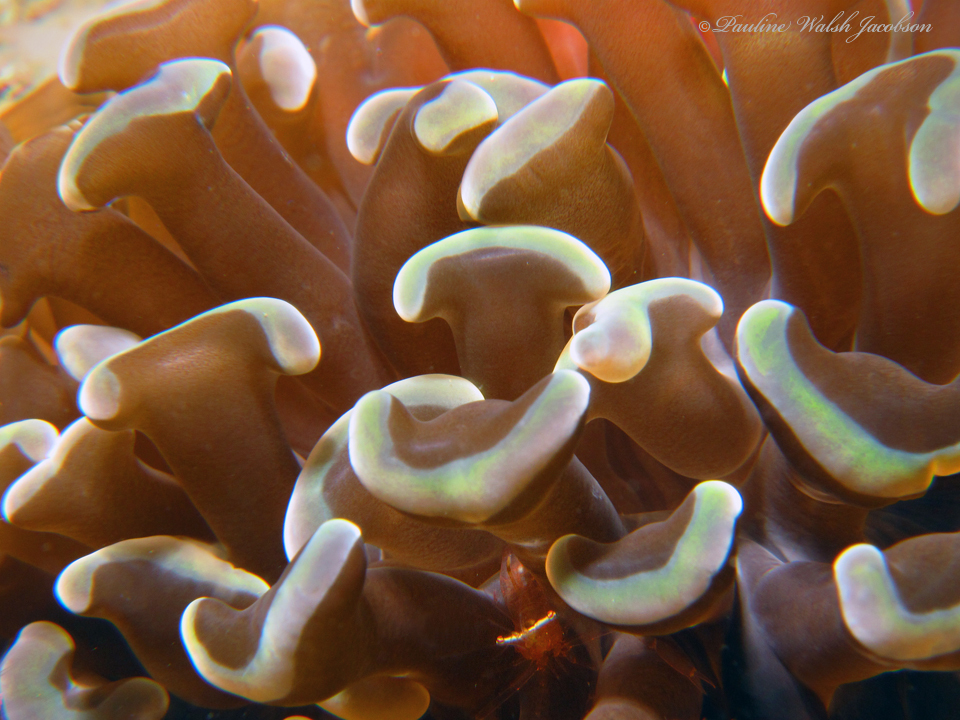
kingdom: Animalia
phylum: Cnidaria
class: Anthozoa
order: Scleractinia
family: Euphylliidae
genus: Fimbriaphyllia
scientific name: Fimbriaphyllia ancora
